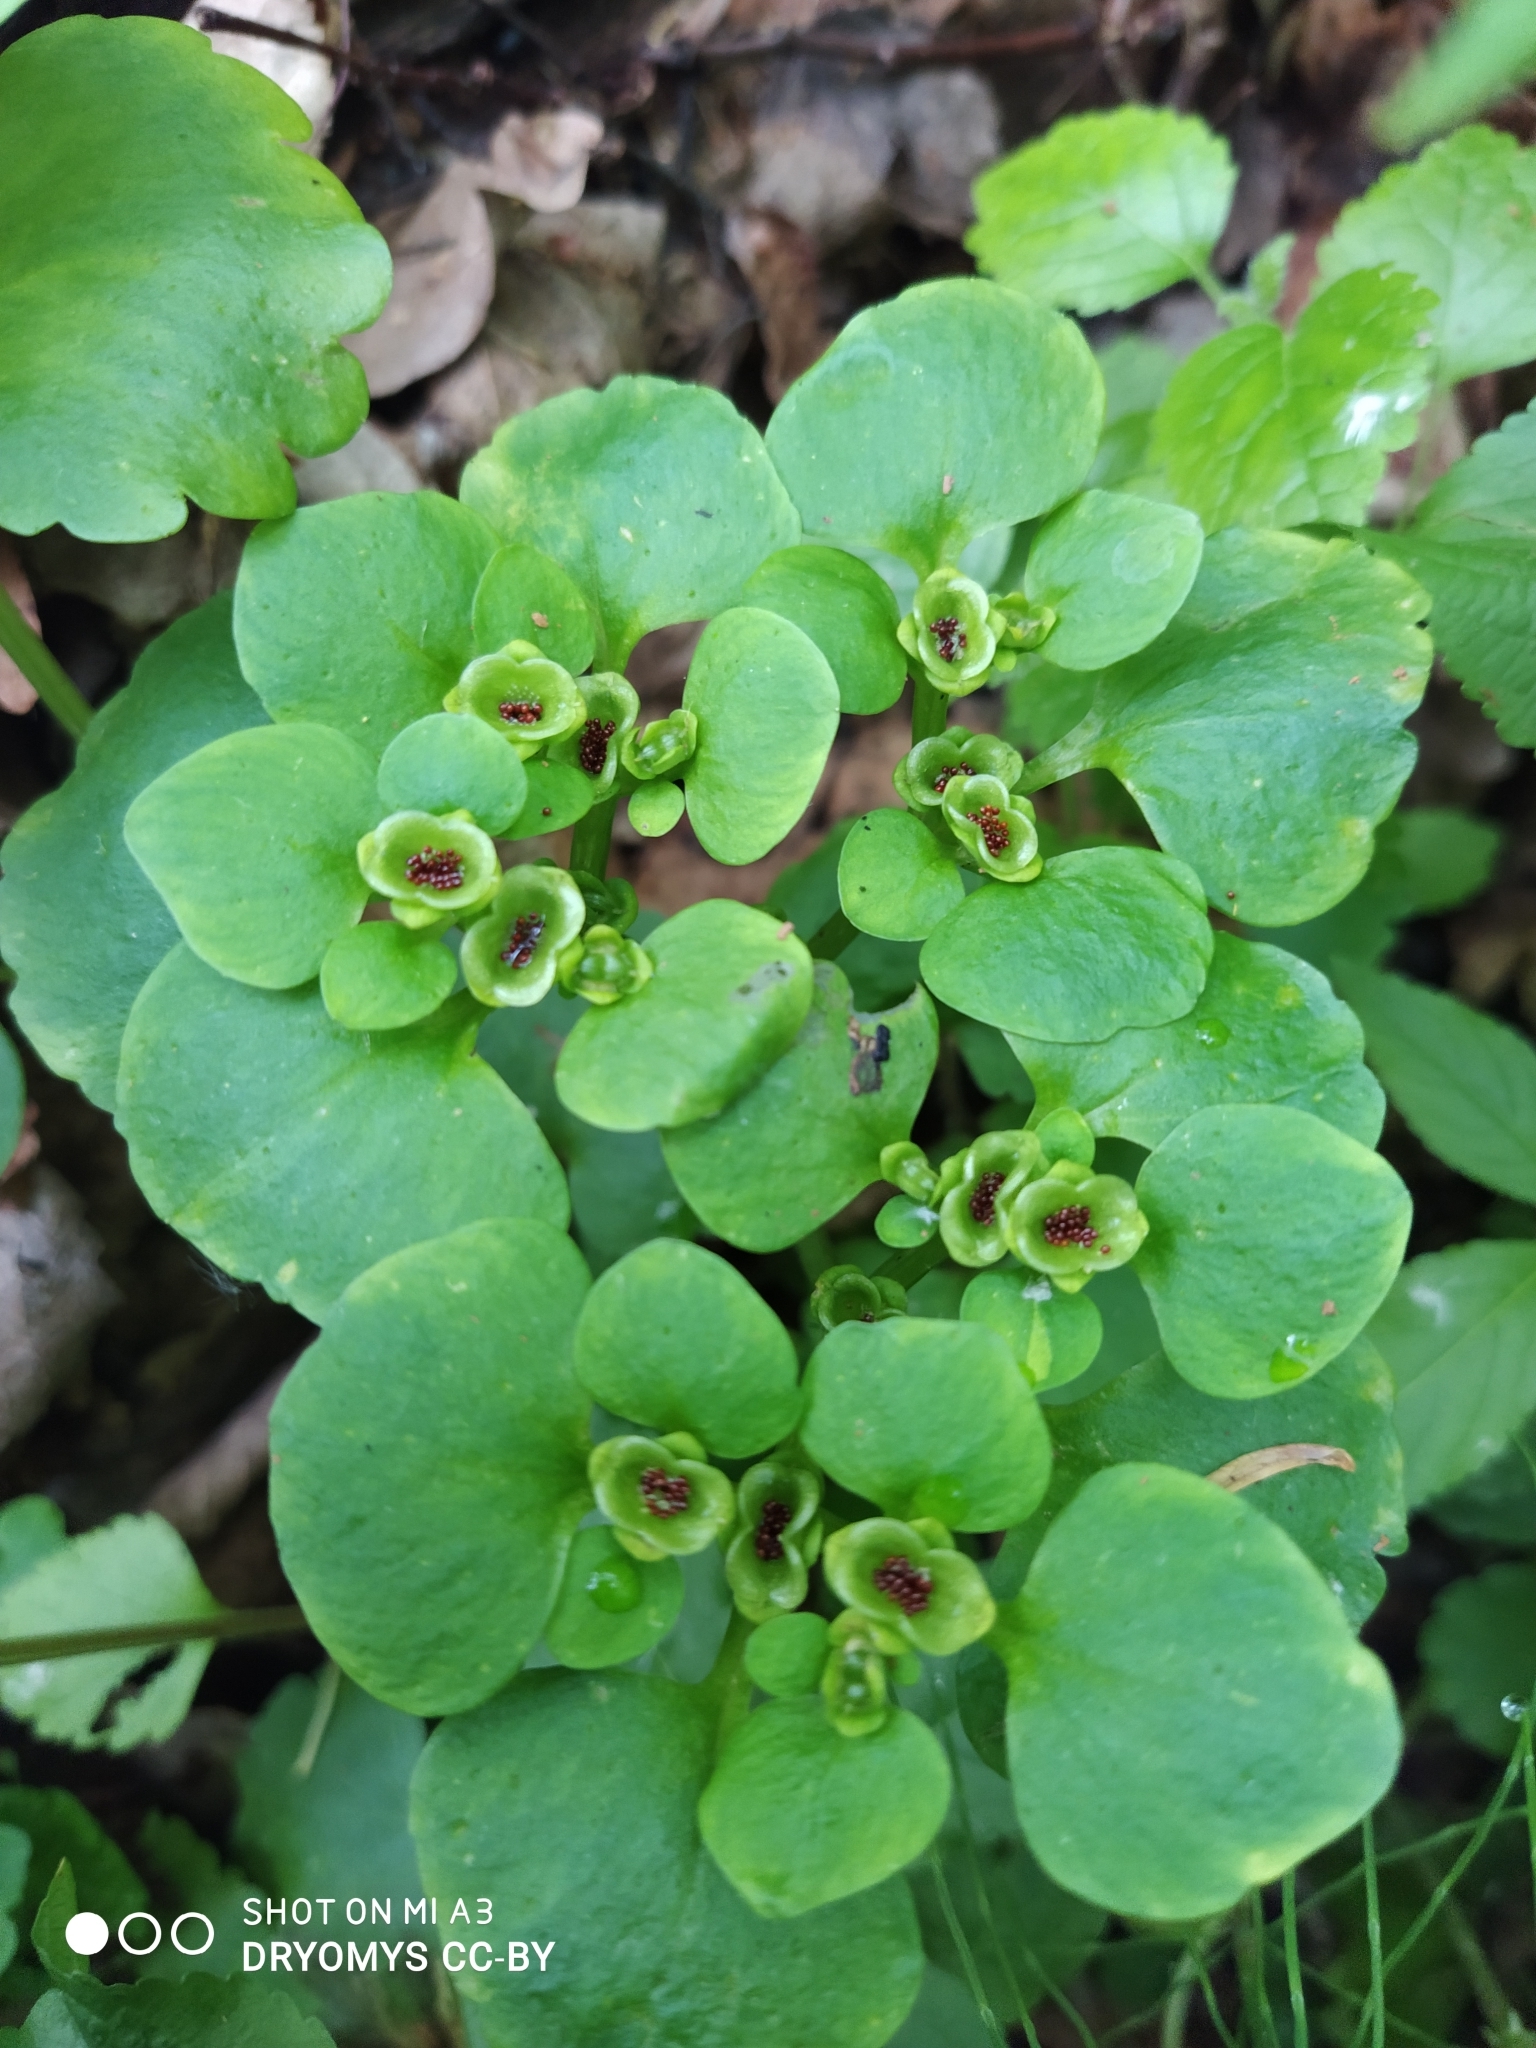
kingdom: Plantae
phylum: Tracheophyta
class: Magnoliopsida
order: Saxifragales
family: Saxifragaceae
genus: Chrysosplenium
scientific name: Chrysosplenium alternifolium
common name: Alternate-leaved golden-saxifrage
